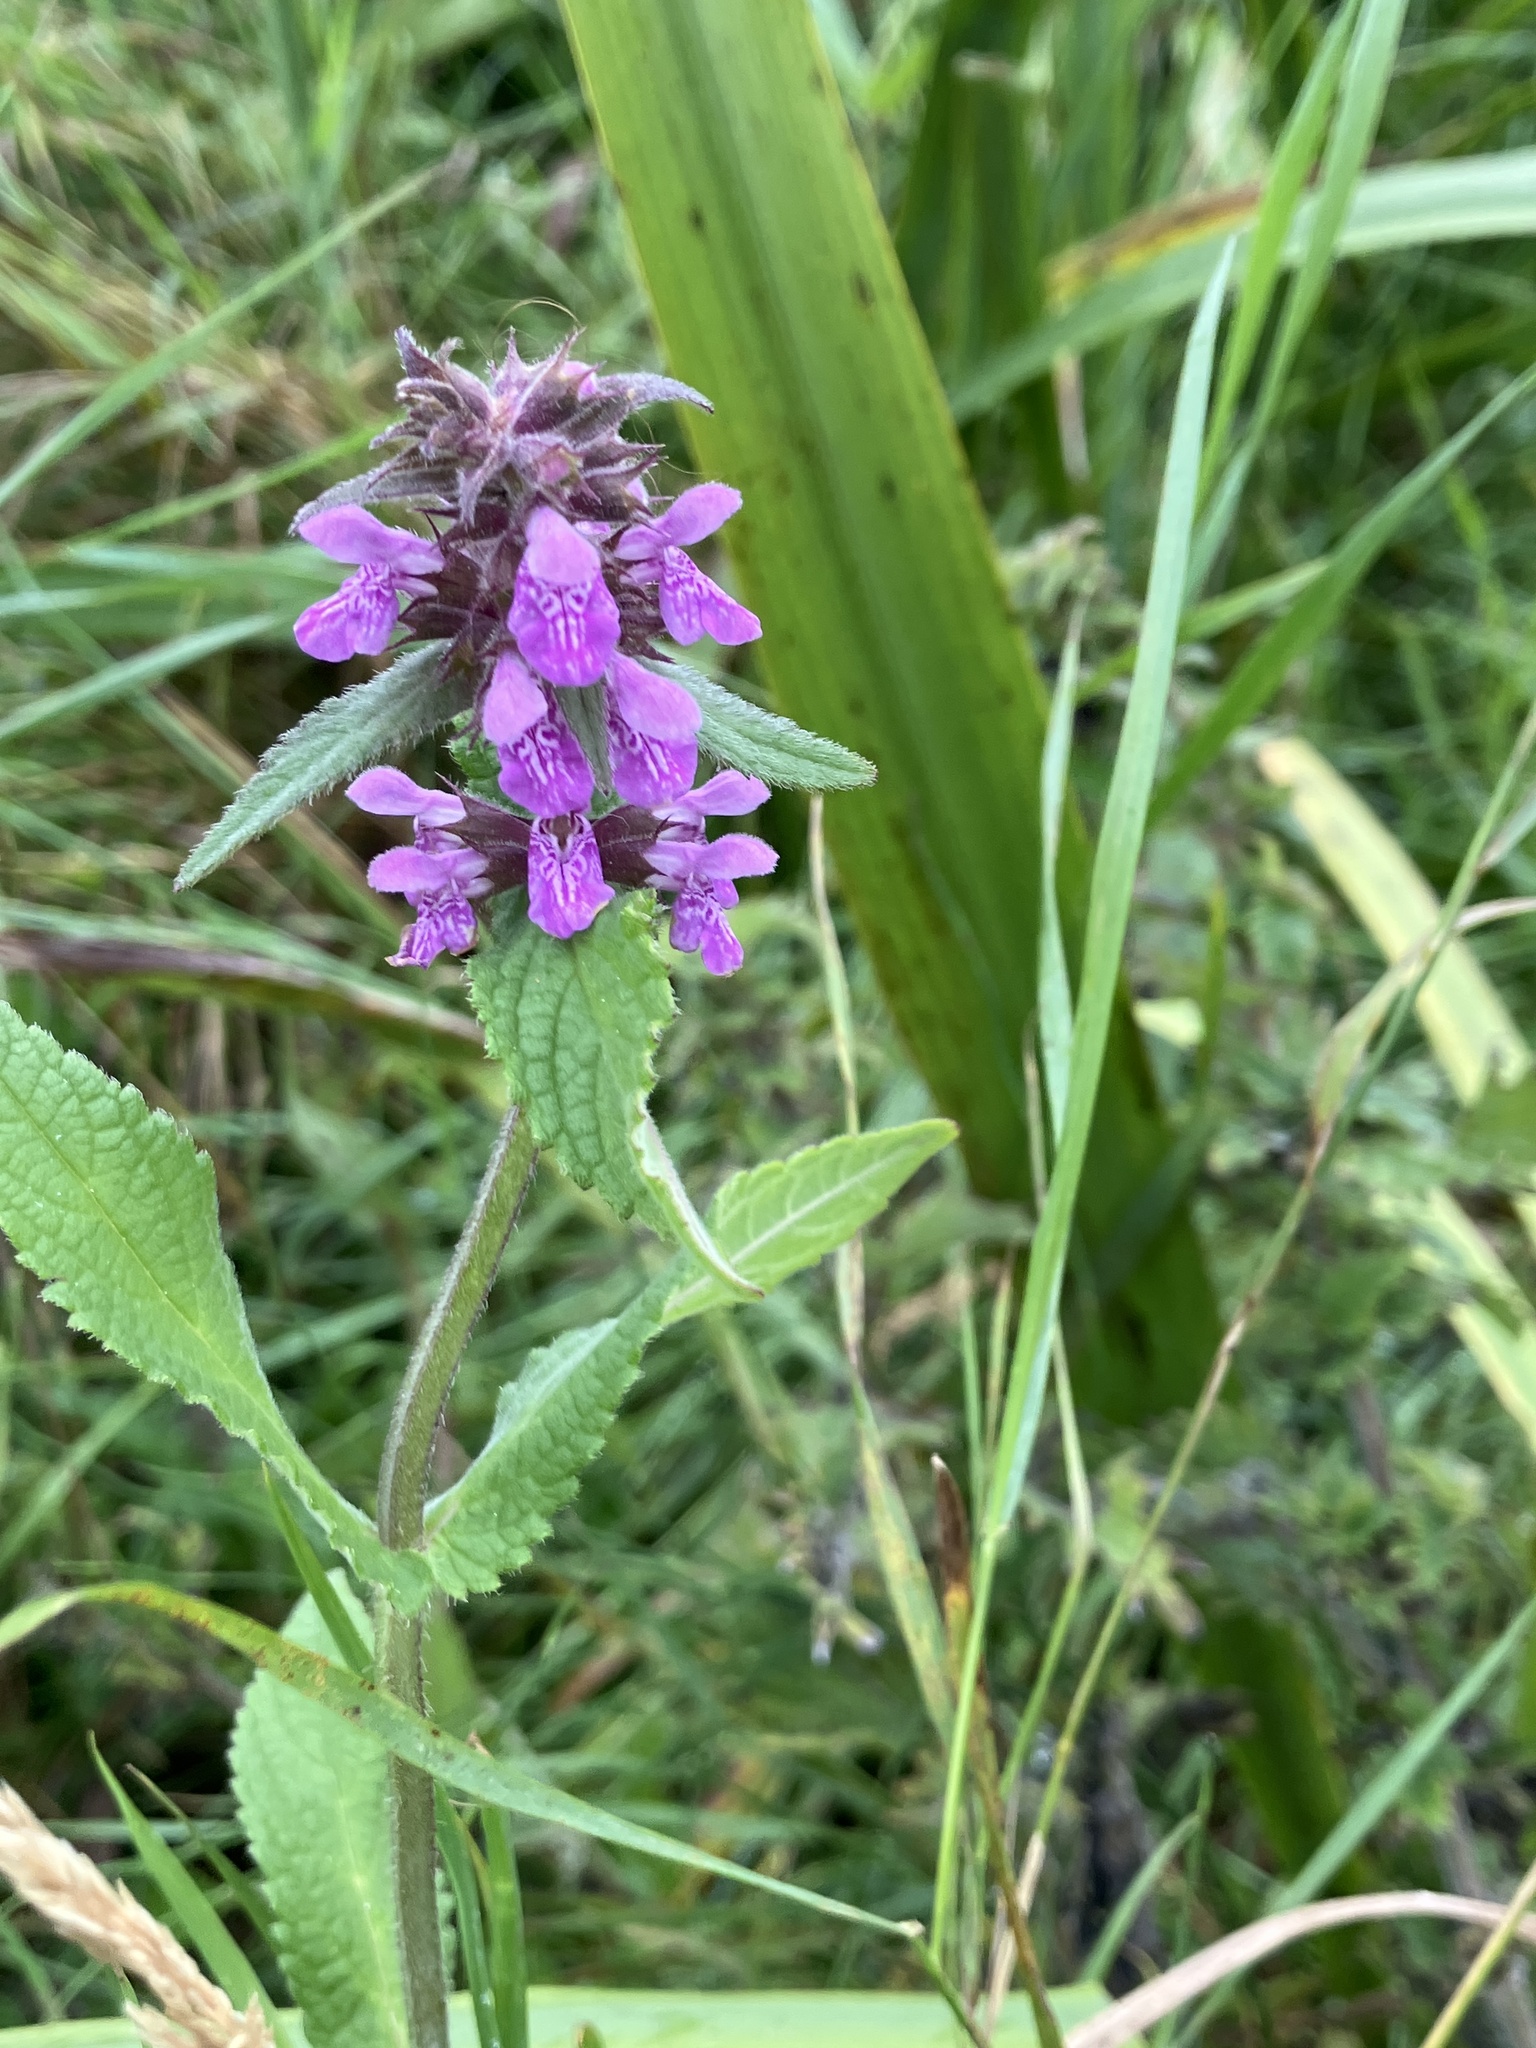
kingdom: Plantae
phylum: Tracheophyta
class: Magnoliopsida
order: Lamiales
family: Lamiaceae
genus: Stachys
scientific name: Stachys palustris
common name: Marsh woundwort
